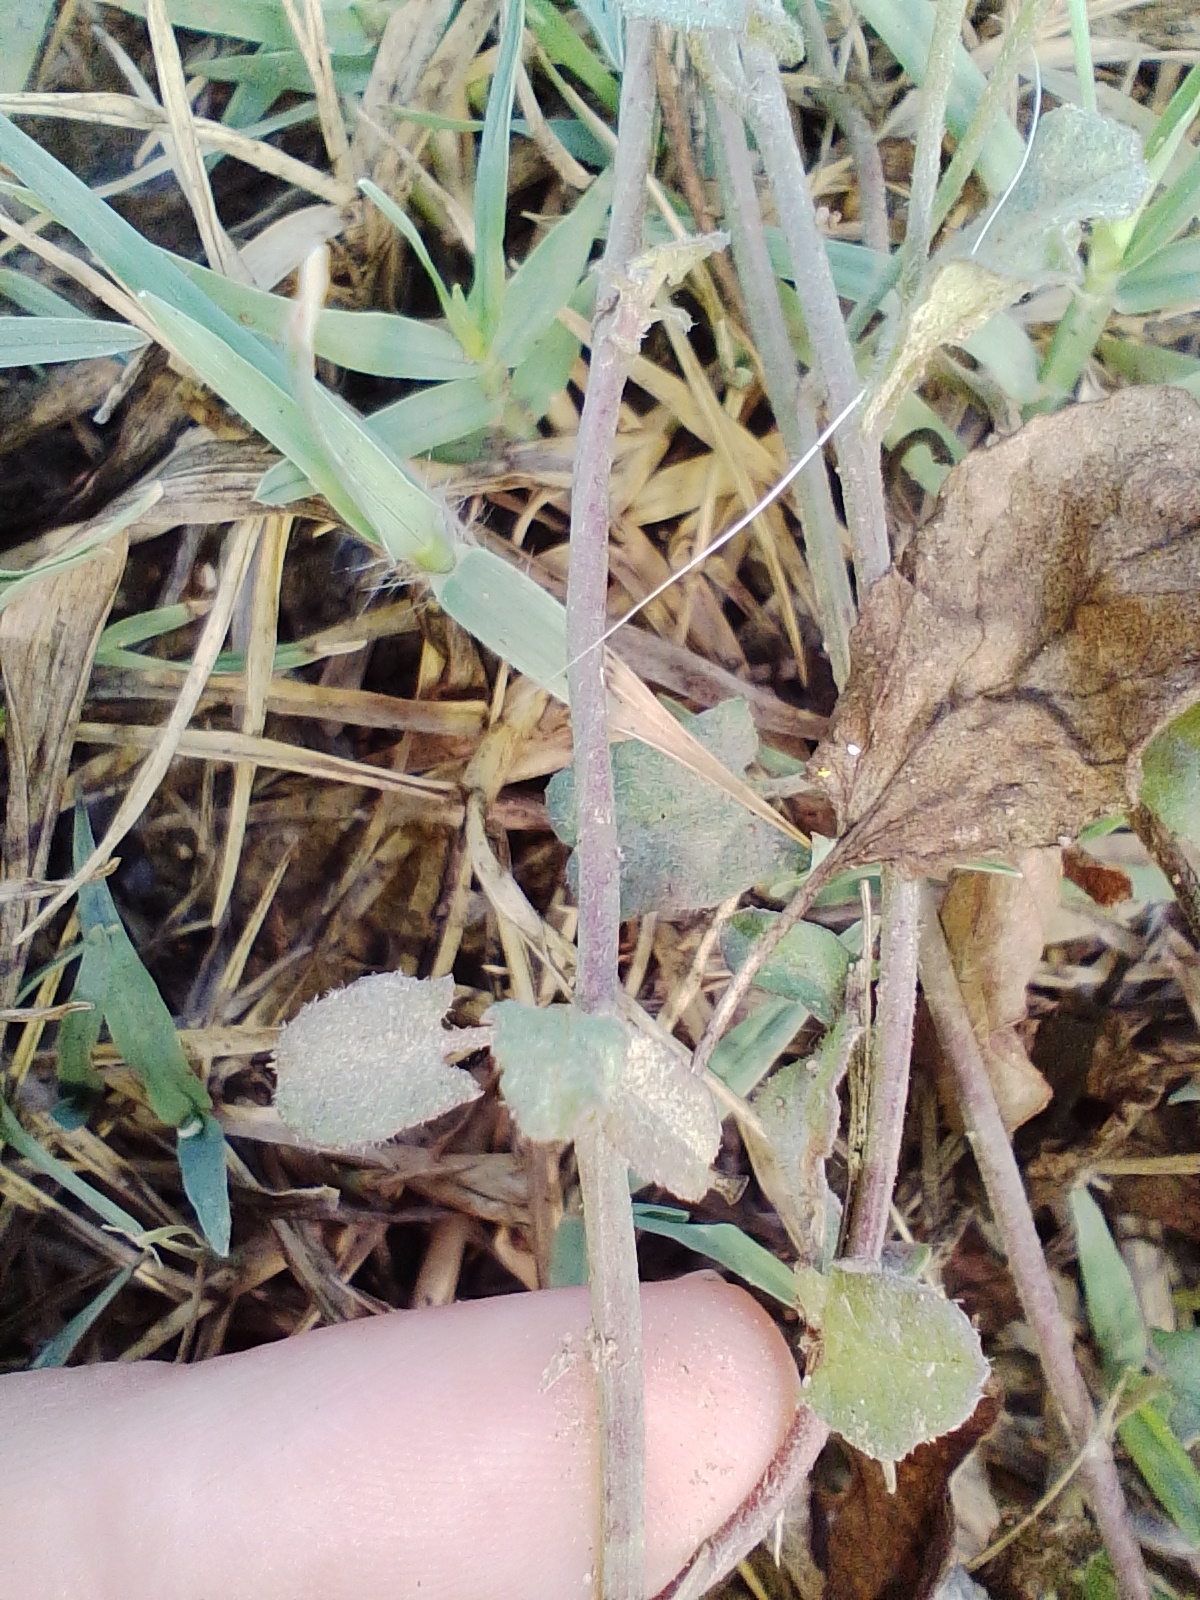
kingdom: Plantae
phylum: Tracheophyta
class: Magnoliopsida
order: Solanales
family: Convolvulaceae
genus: Convolvulus
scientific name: Convolvulus arvensis
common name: Field bindweed
